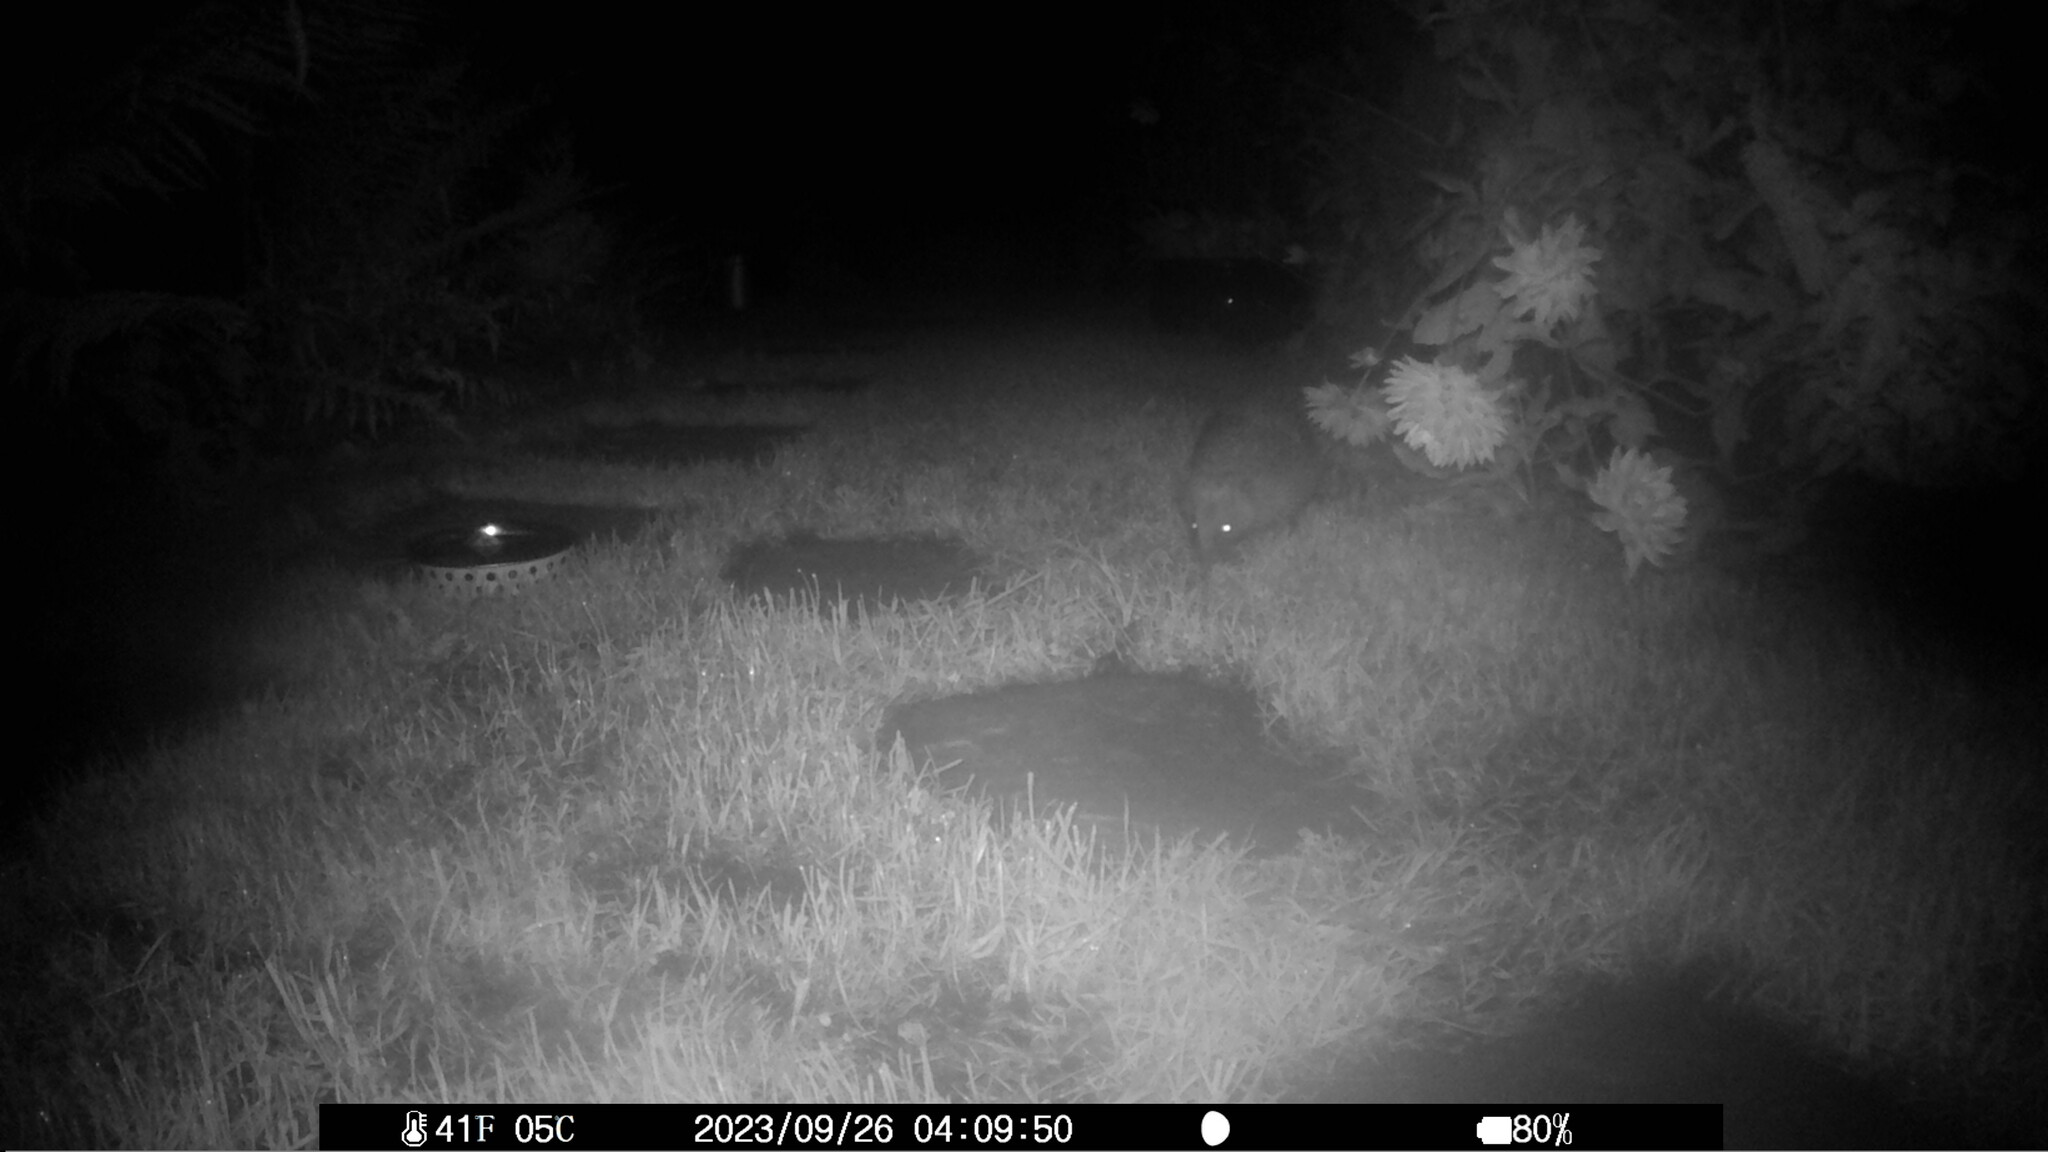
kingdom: Animalia
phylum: Chordata
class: Mammalia
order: Erinaceomorpha
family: Erinaceidae
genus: Erinaceus
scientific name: Erinaceus europaeus
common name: West european hedgehog
